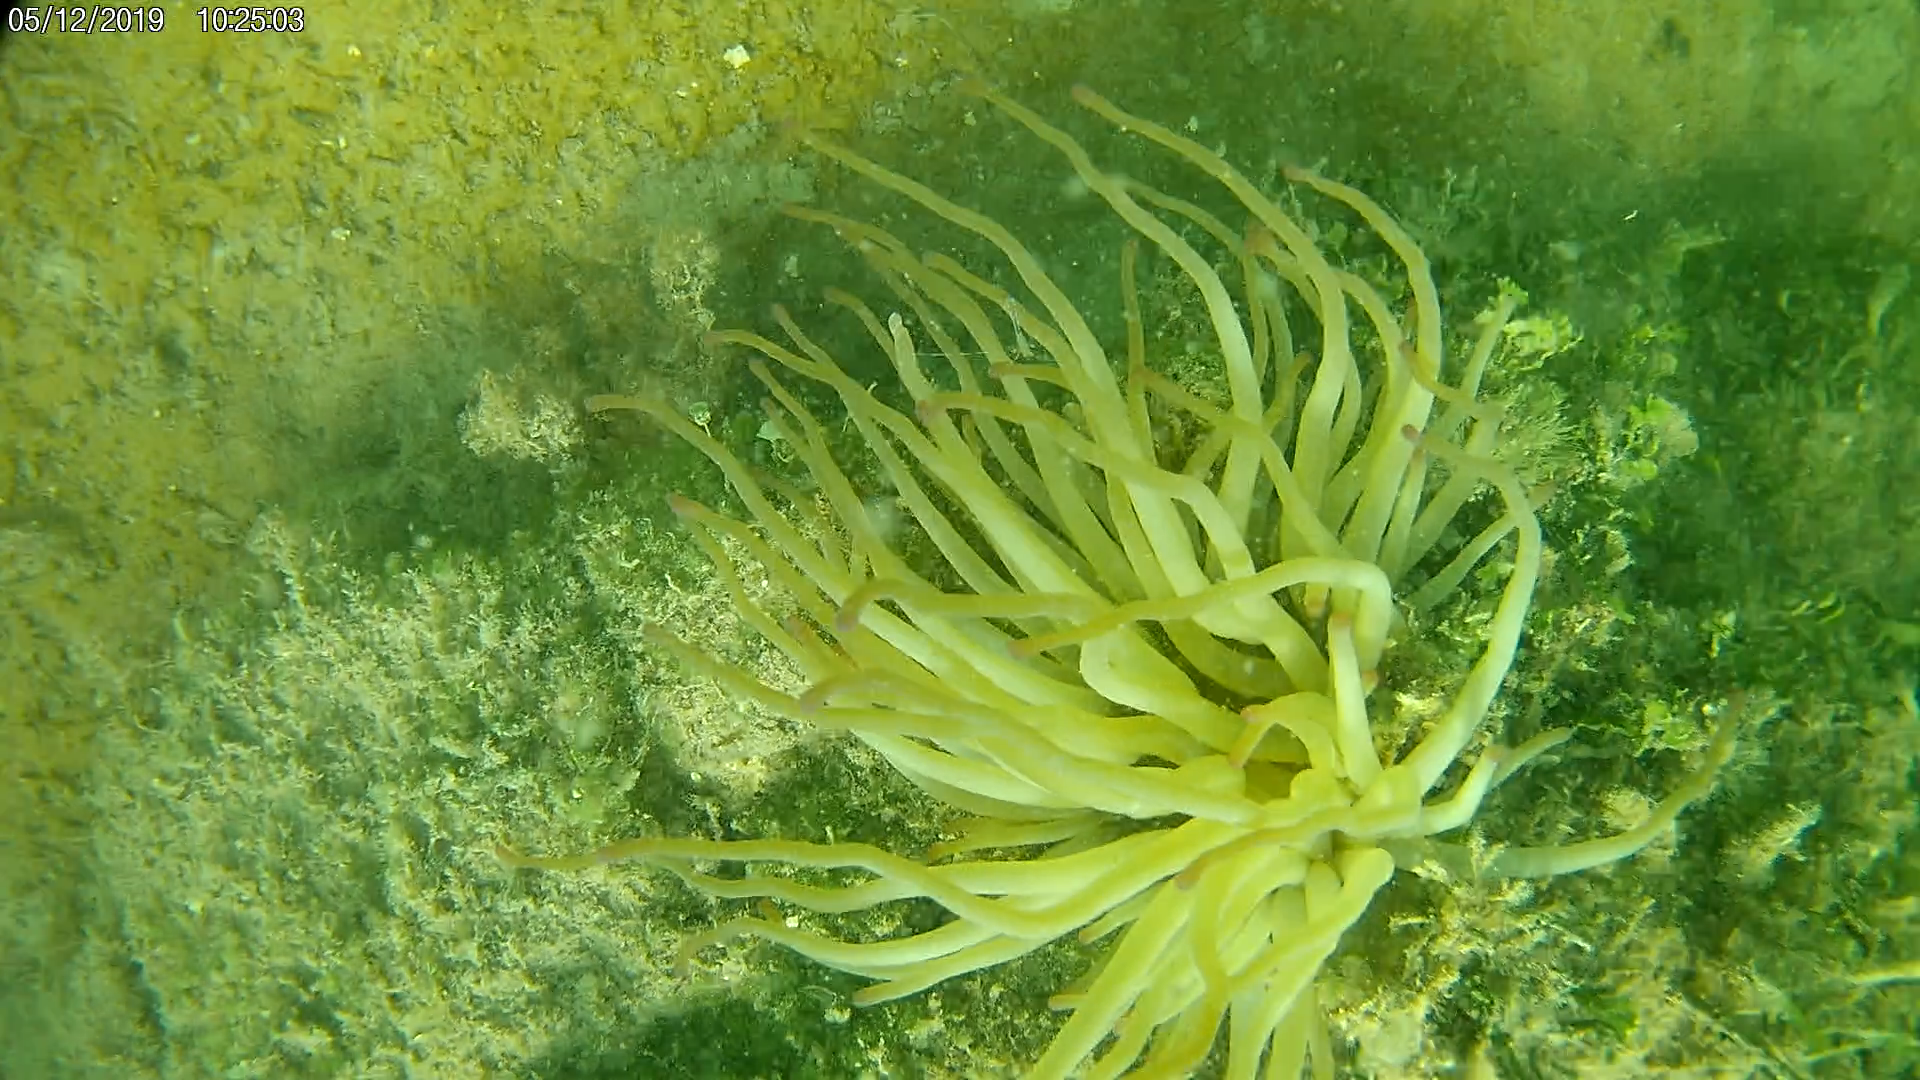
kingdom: Animalia
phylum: Cnidaria
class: Anthozoa
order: Actiniaria
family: Actiniidae
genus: Condylactis
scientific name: Condylactis gigantea
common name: Giant caribbean anemone
